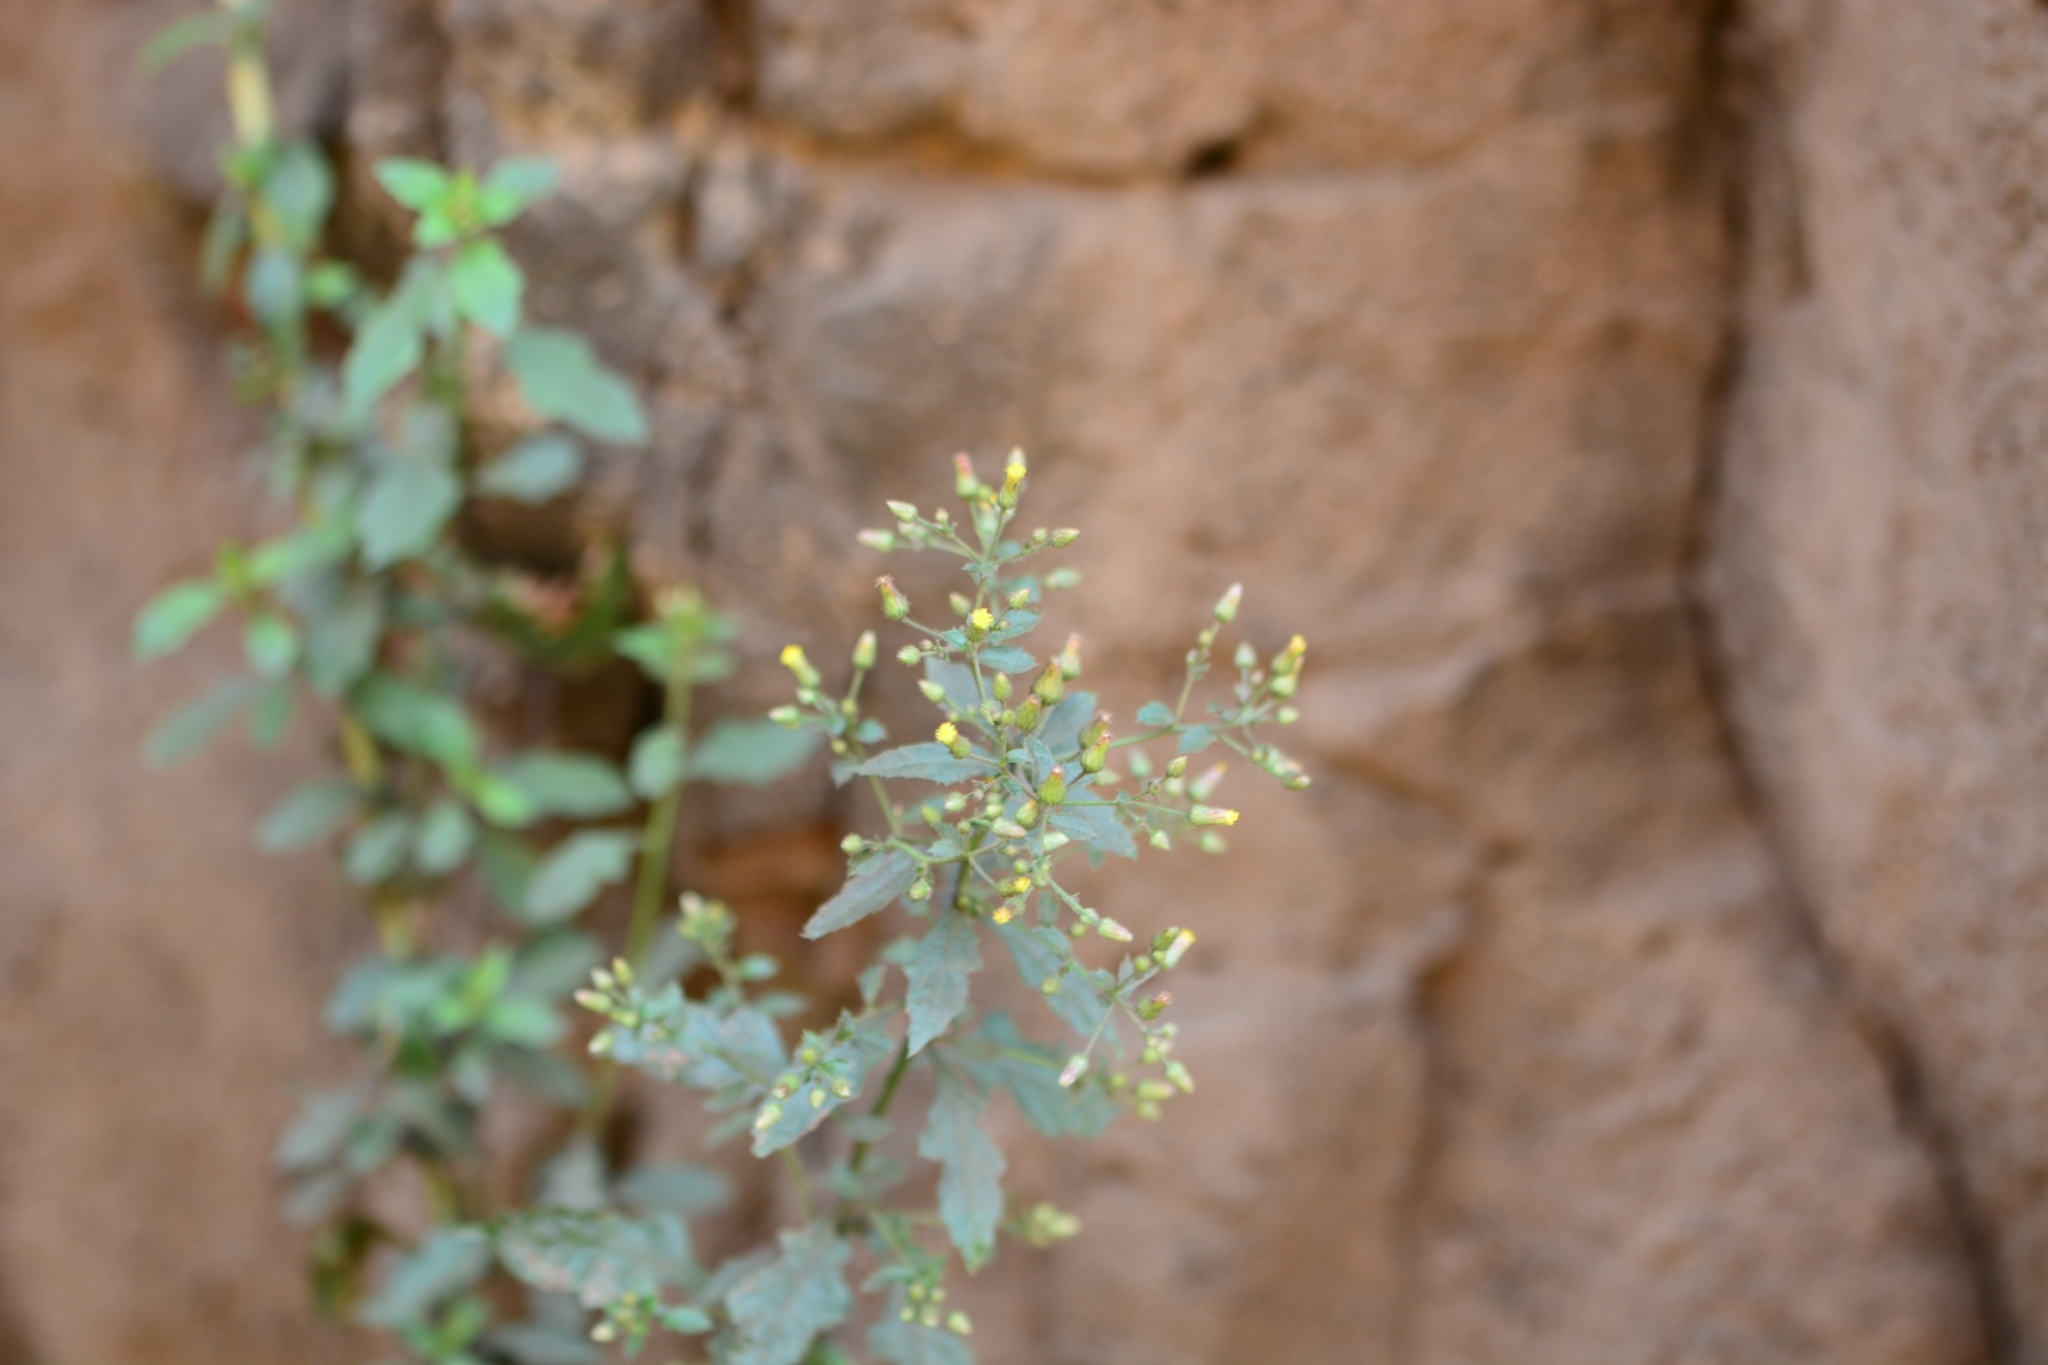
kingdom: Plantae
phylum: Tracheophyta
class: Magnoliopsida
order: Asterales
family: Asteraceae
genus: Pluchea
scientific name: Pluchea paniculata
